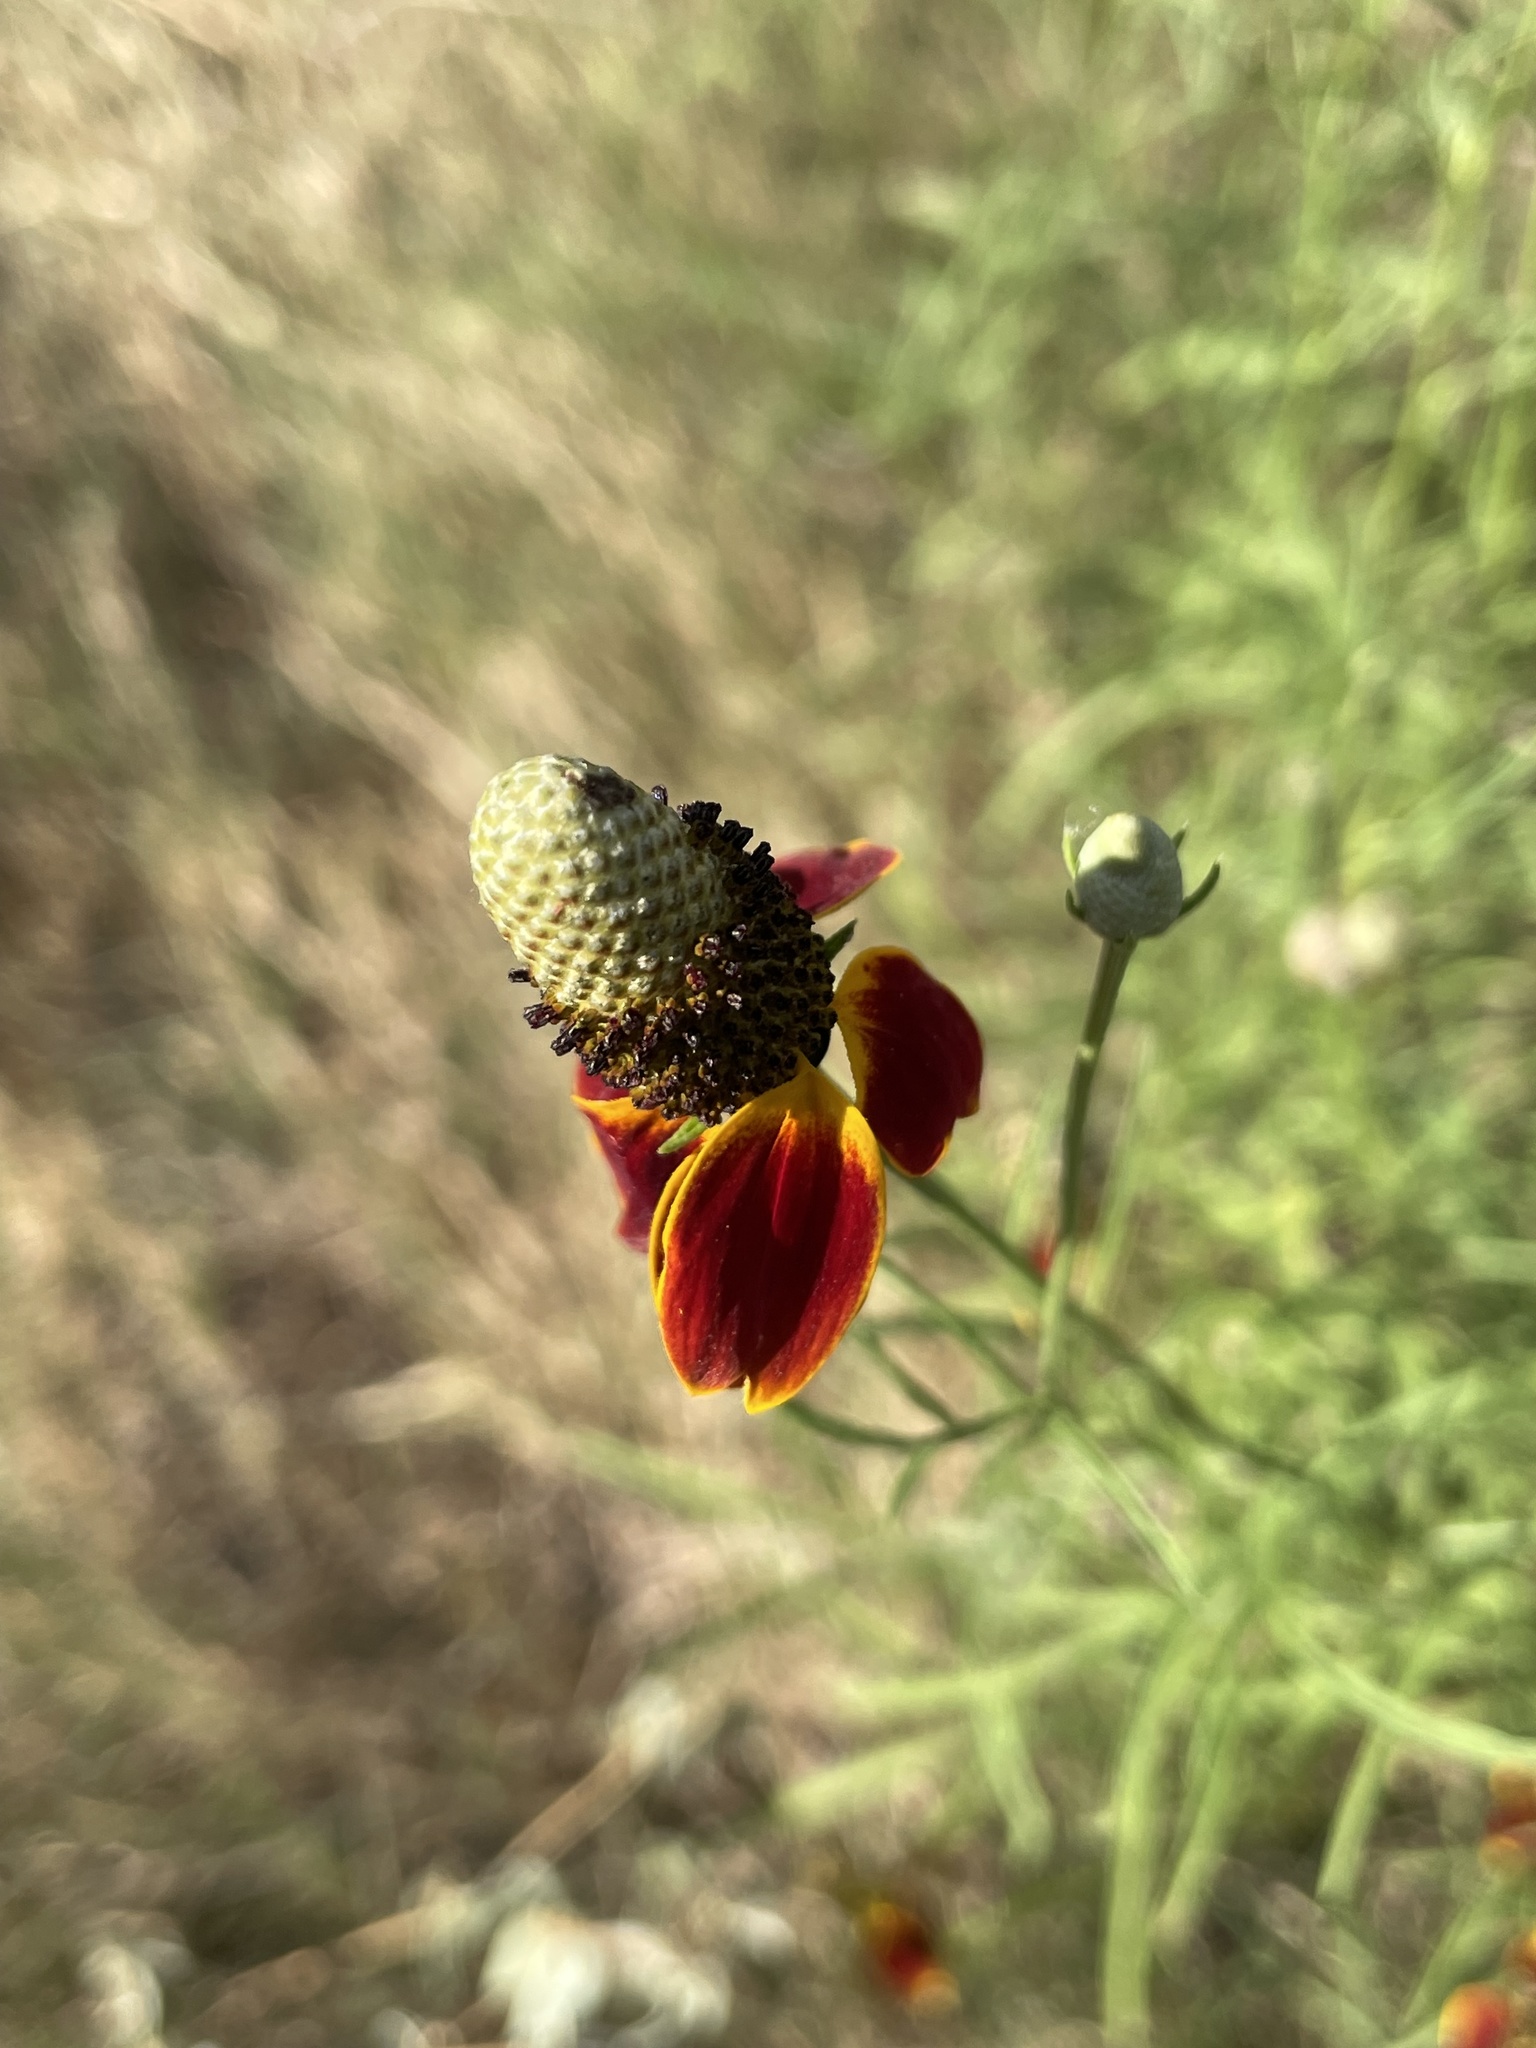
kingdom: Plantae
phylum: Tracheophyta
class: Magnoliopsida
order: Asterales
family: Asteraceae
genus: Ratibida
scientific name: Ratibida columnifera
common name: Prairie coneflower
